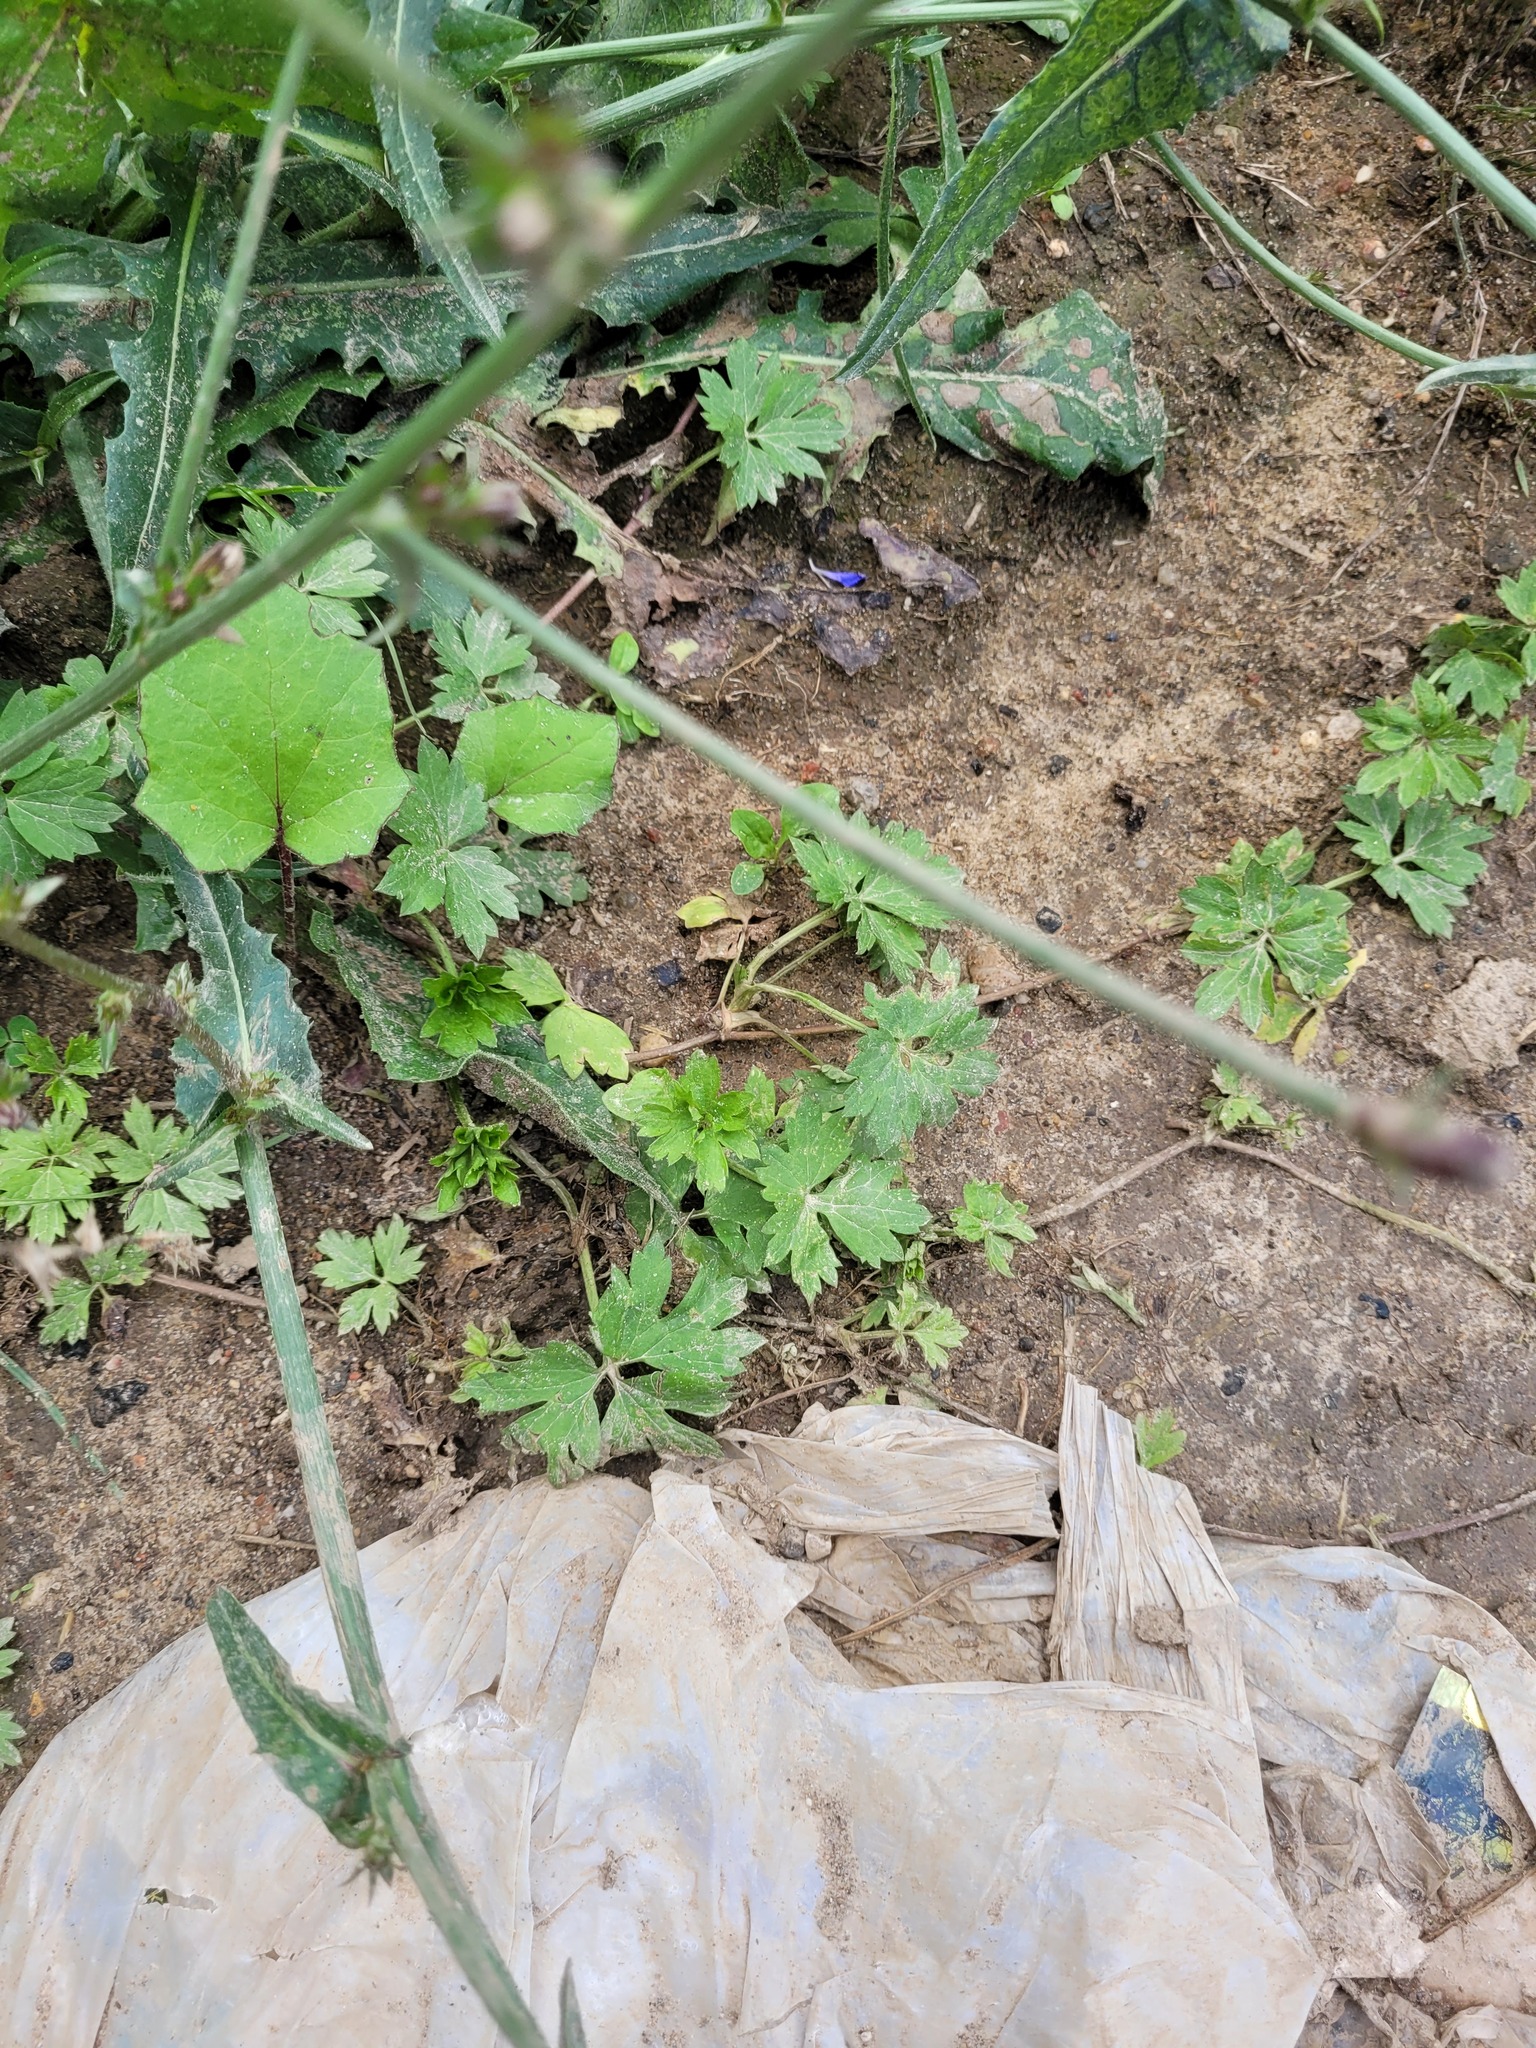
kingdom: Plantae
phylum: Tracheophyta
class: Magnoliopsida
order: Ranunculales
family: Ranunculaceae
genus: Ranunculus
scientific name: Ranunculus repens
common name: Creeping buttercup
